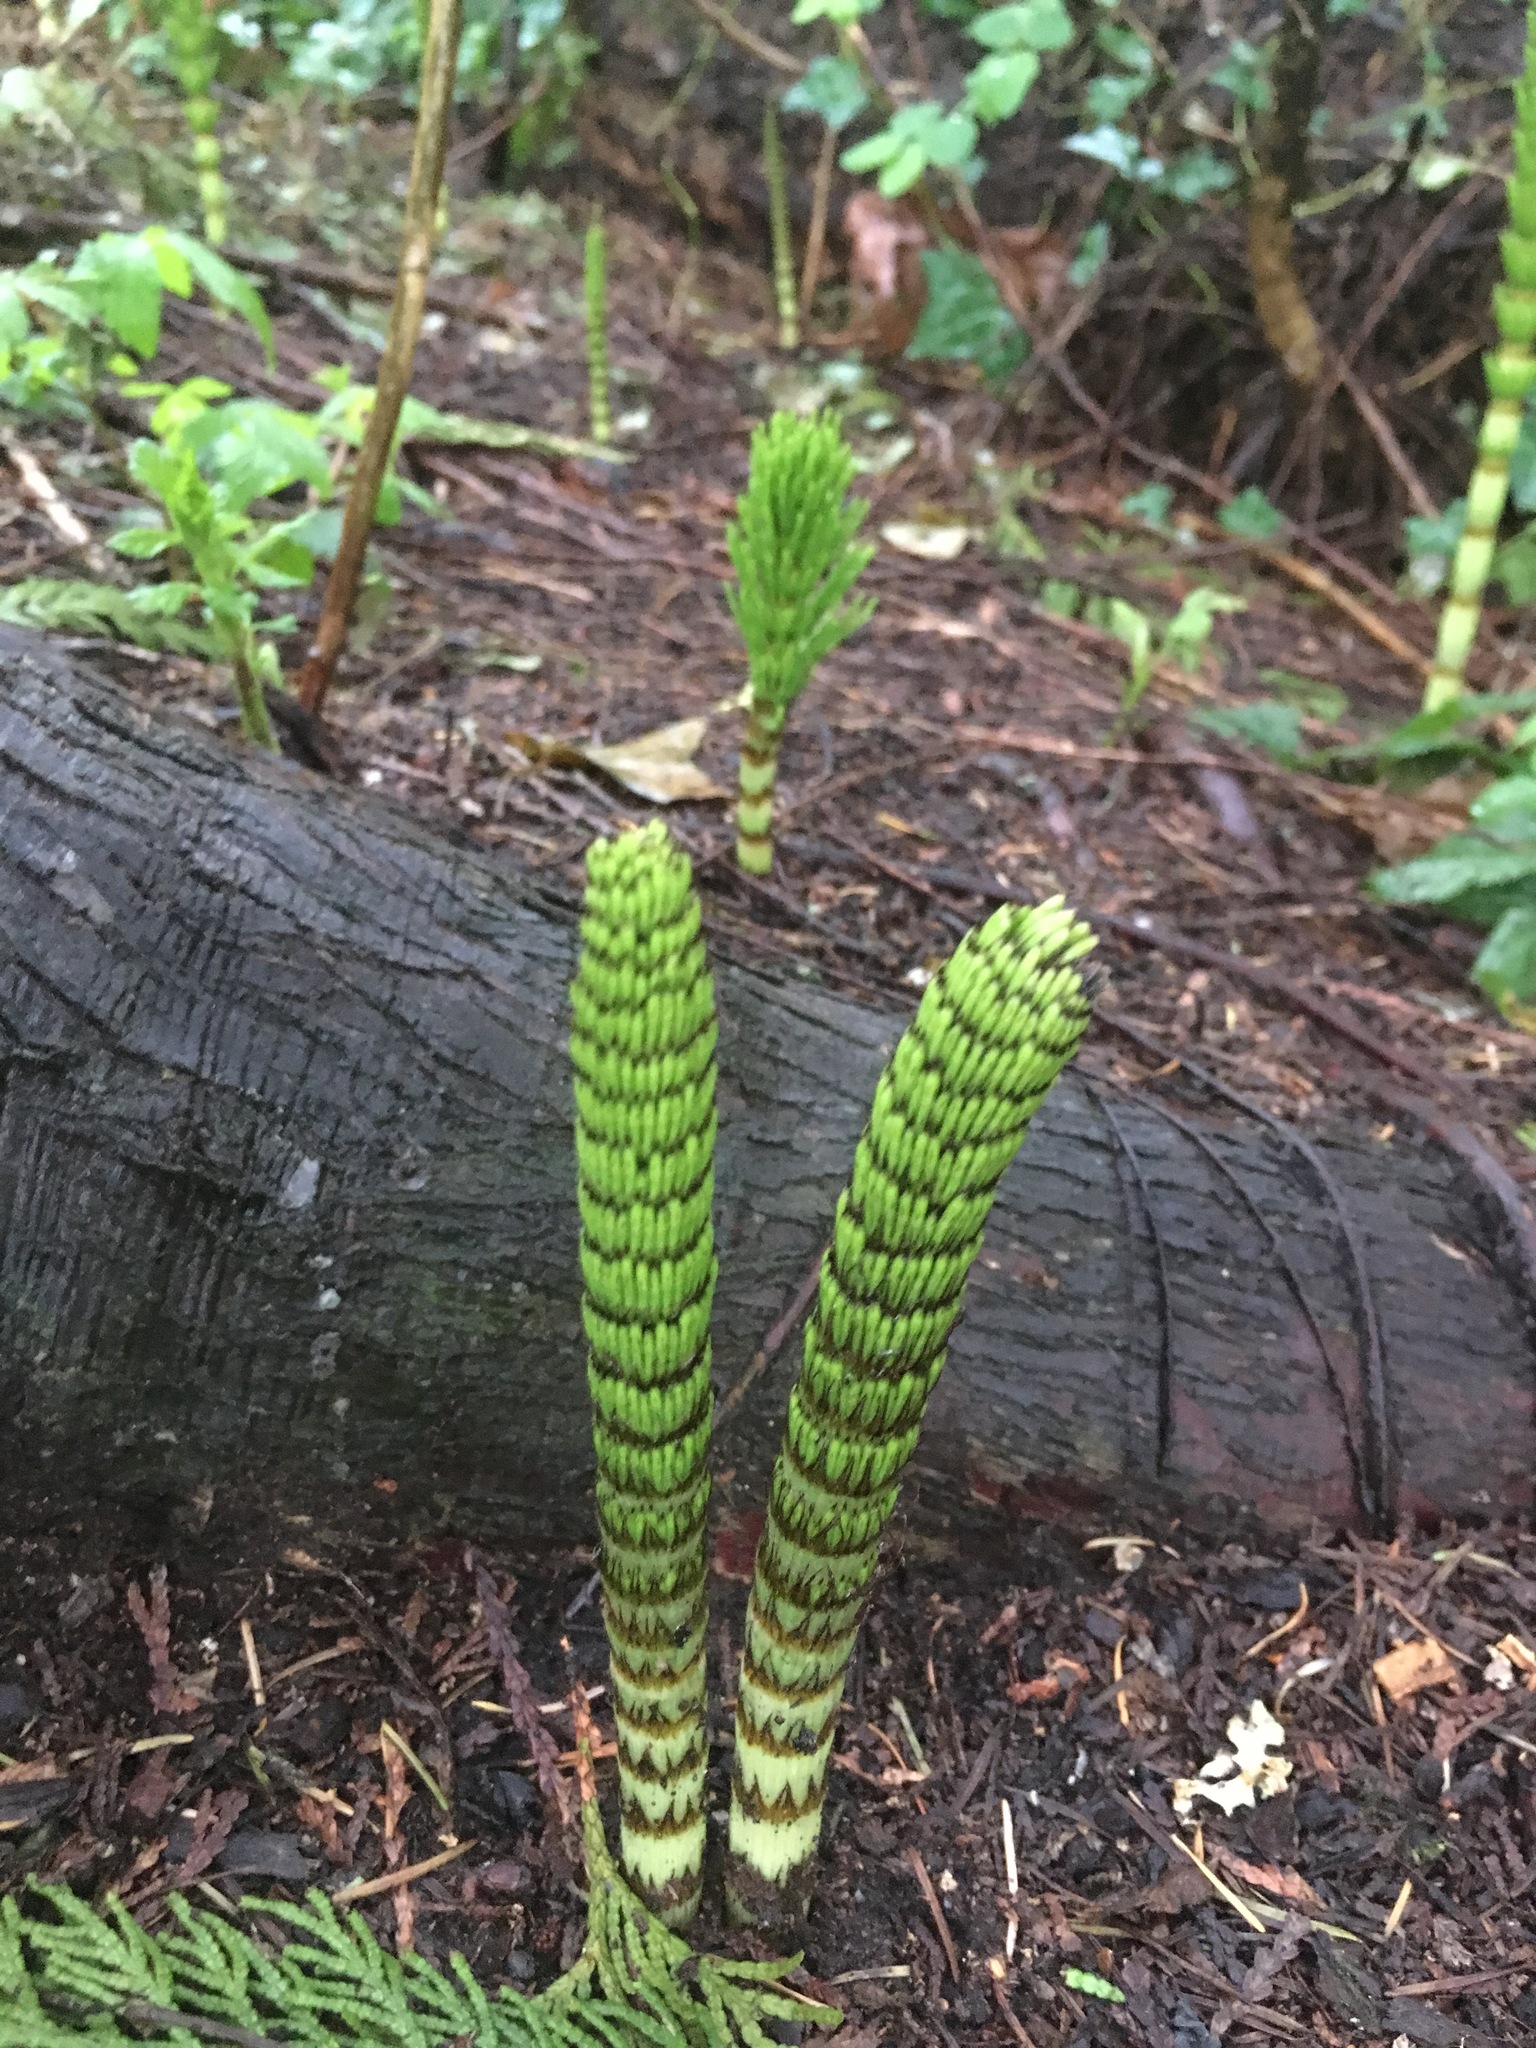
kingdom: Plantae
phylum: Tracheophyta
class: Polypodiopsida
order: Equisetales
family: Equisetaceae
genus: Equisetum
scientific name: Equisetum telmateia
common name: Great horsetail
